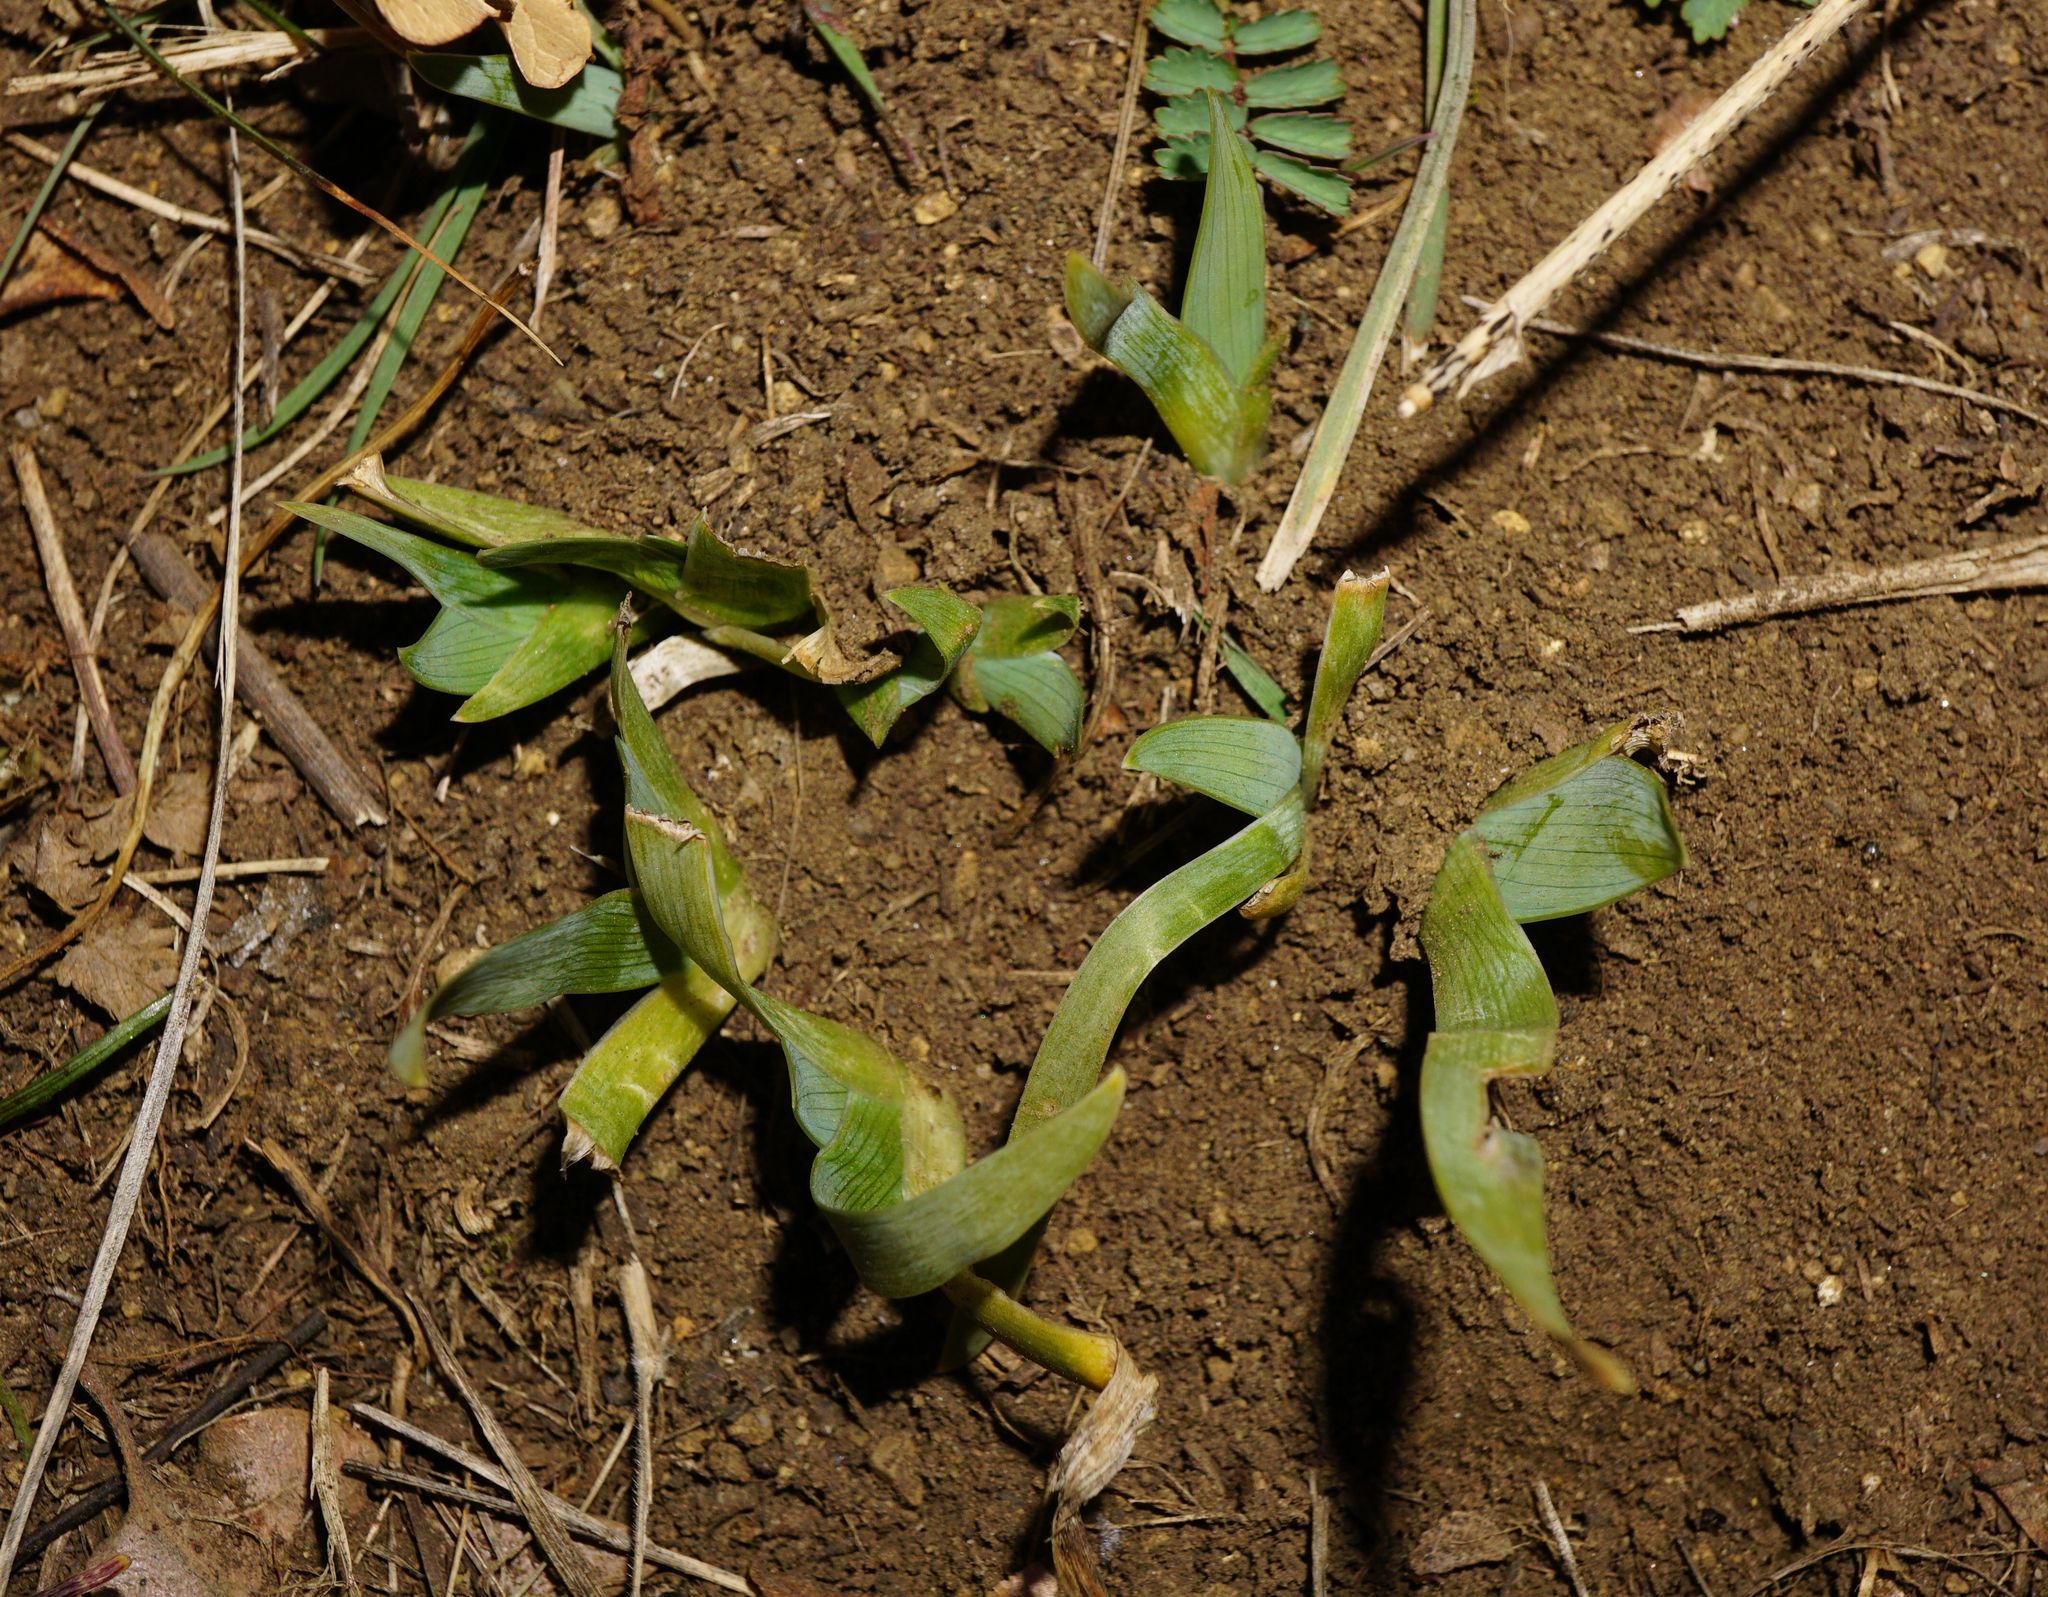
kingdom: Plantae
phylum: Tracheophyta
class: Liliopsida
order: Asparagales
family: Iridaceae
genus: Iris
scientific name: Iris pumila
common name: Dwarf iris
